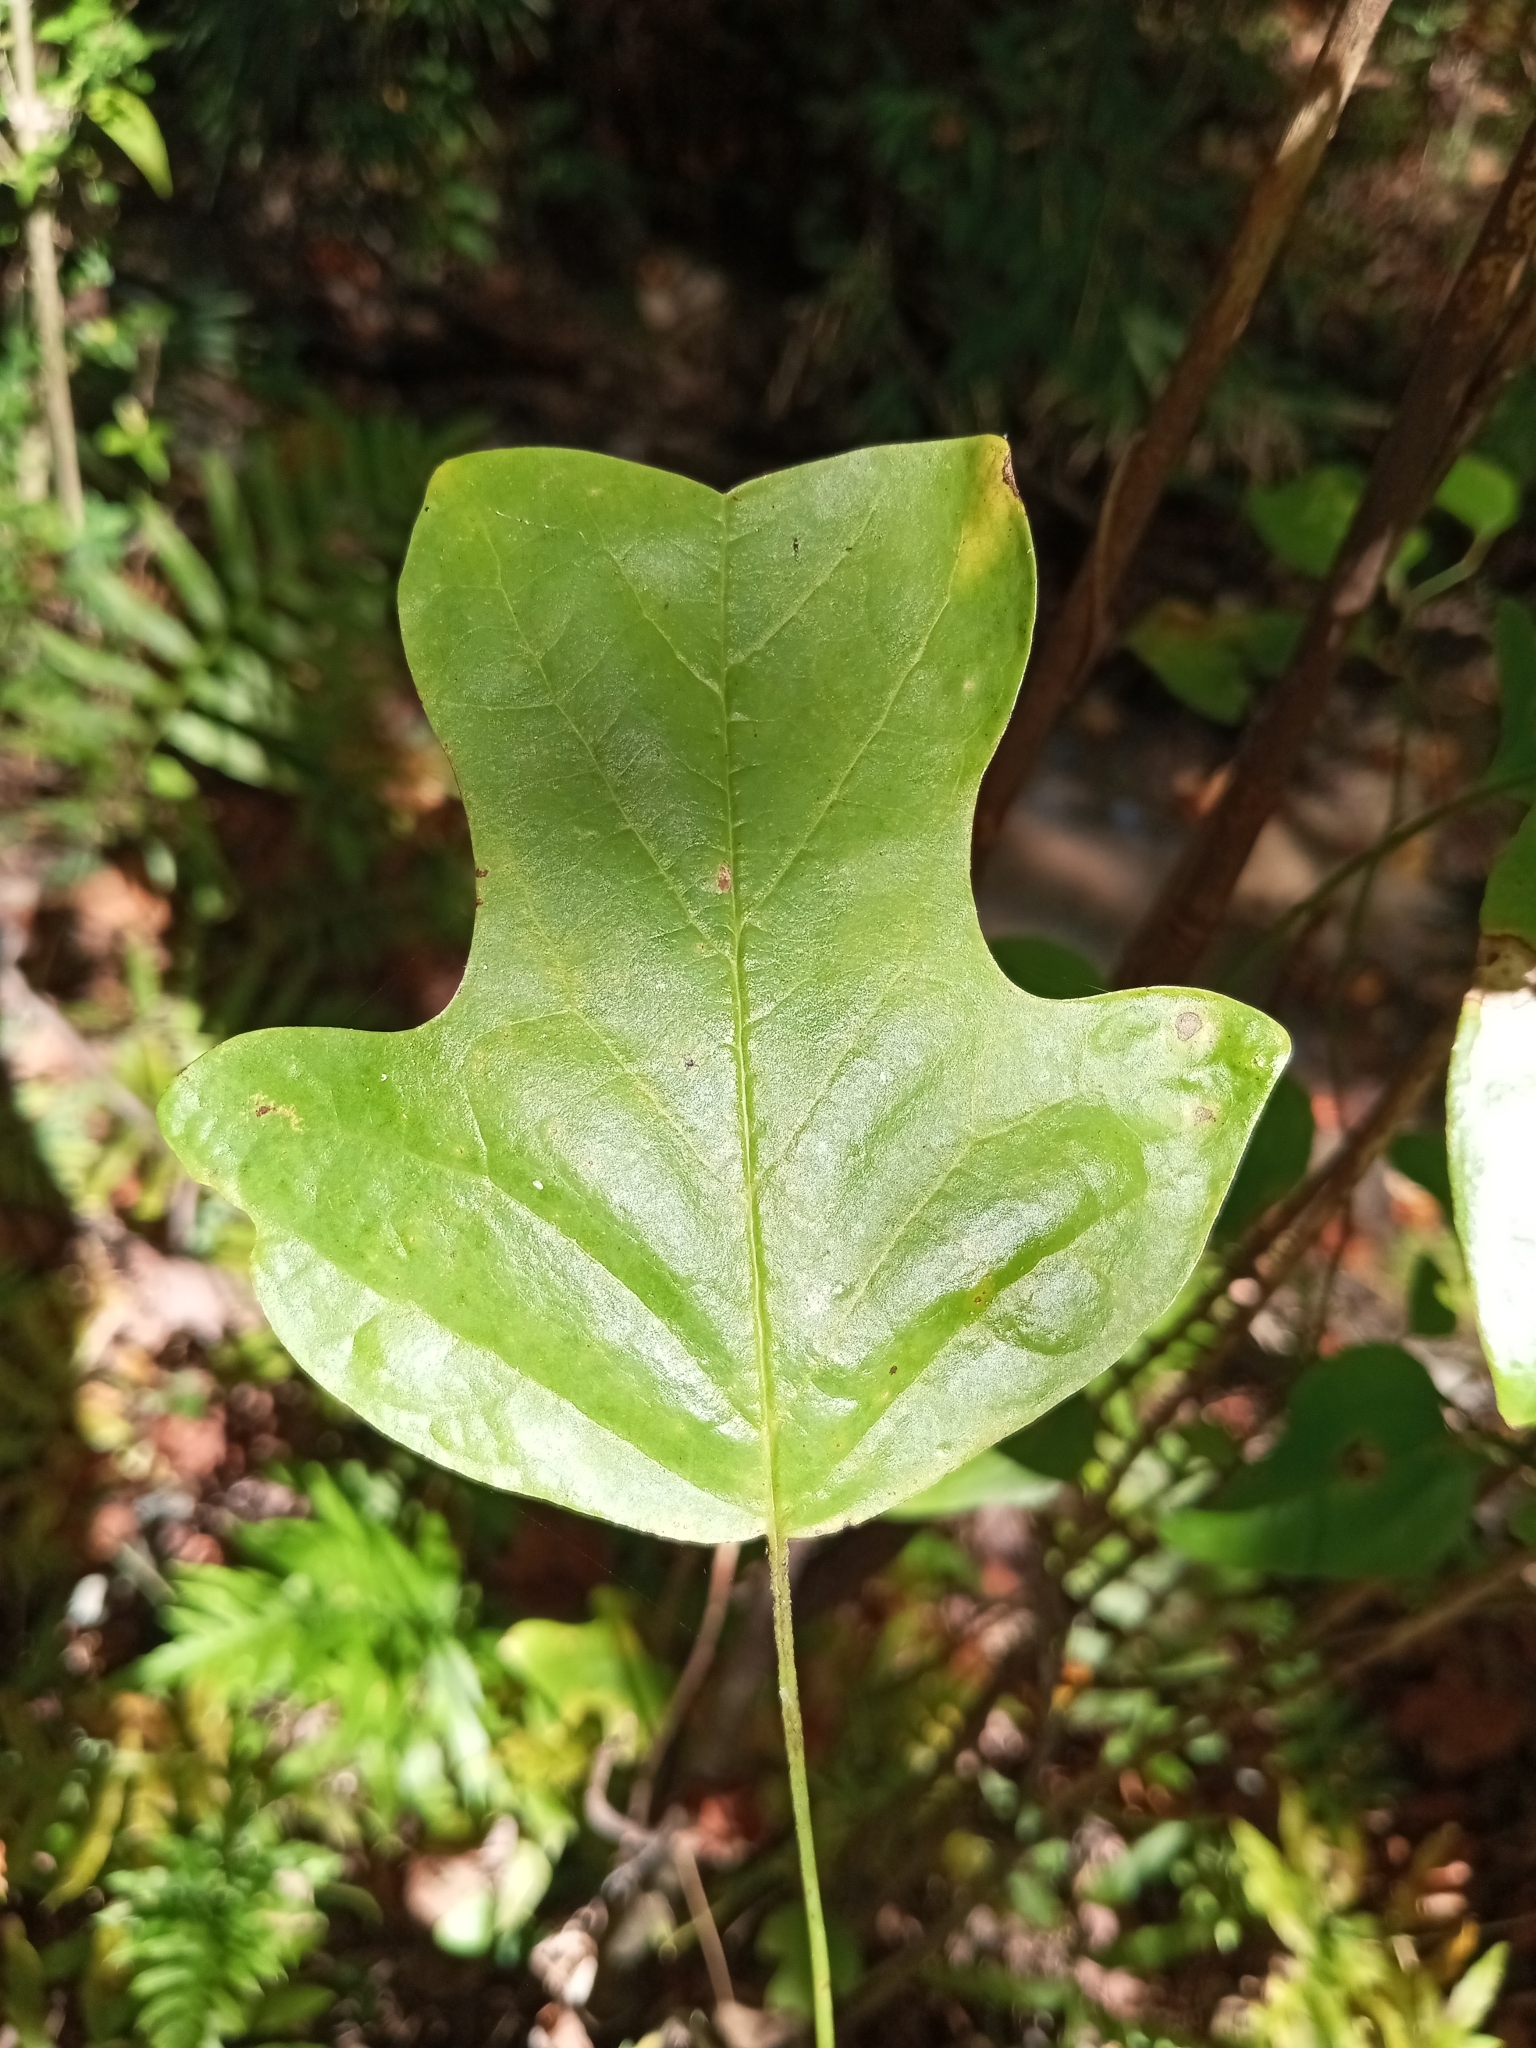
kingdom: Plantae
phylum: Tracheophyta
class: Magnoliopsida
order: Magnoliales
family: Magnoliaceae
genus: Liriodendron
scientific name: Liriodendron tulipifera
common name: Tulip tree
